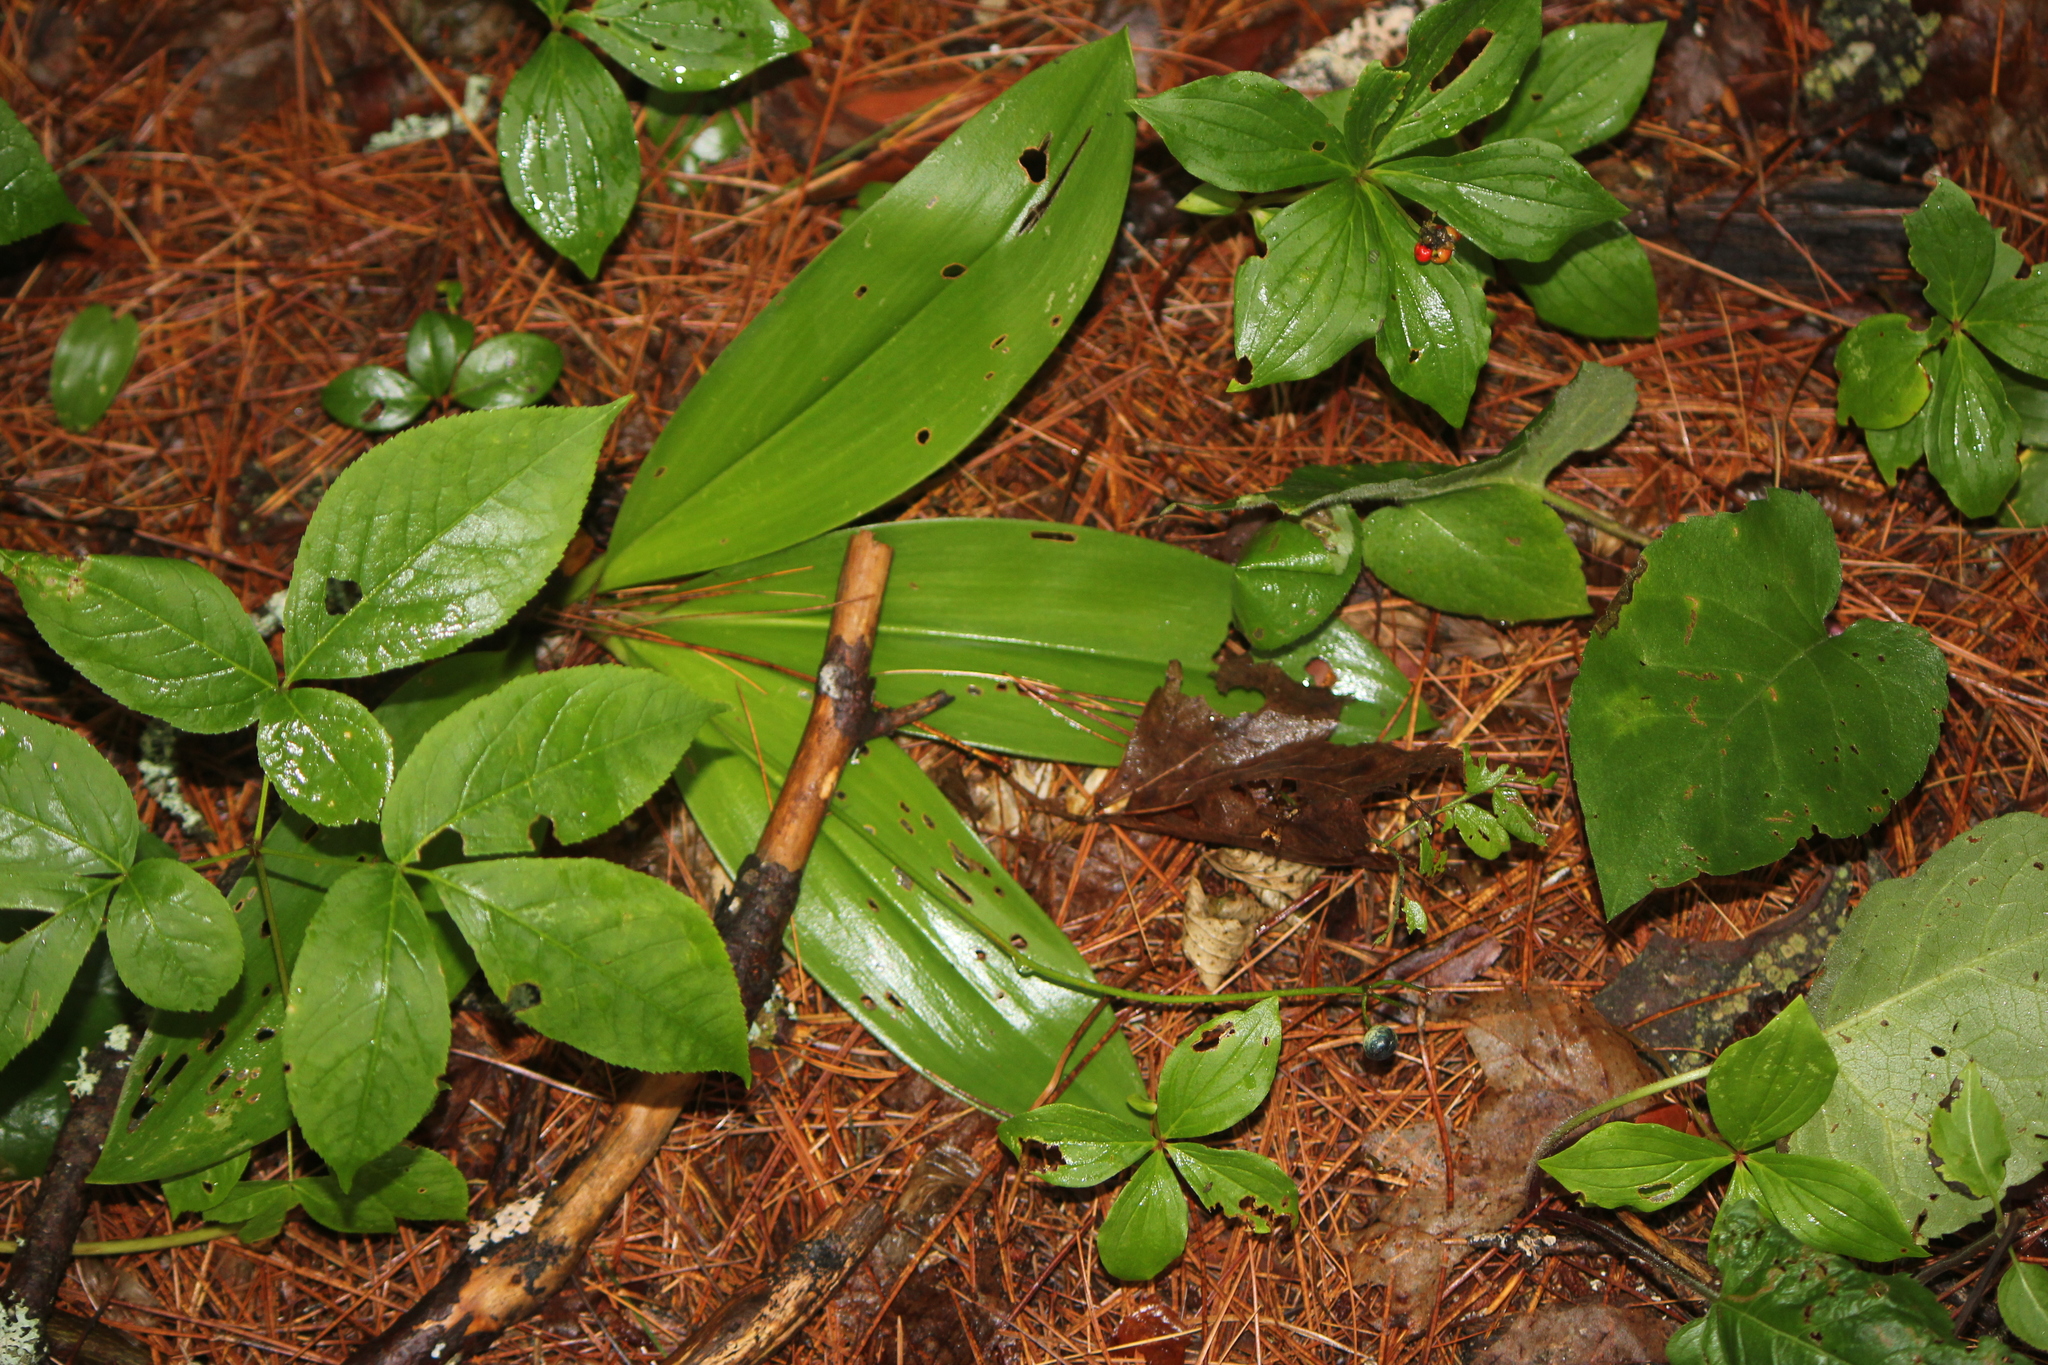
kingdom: Plantae
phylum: Tracheophyta
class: Liliopsida
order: Liliales
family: Liliaceae
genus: Clintonia
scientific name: Clintonia borealis
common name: Yellow clintonia
